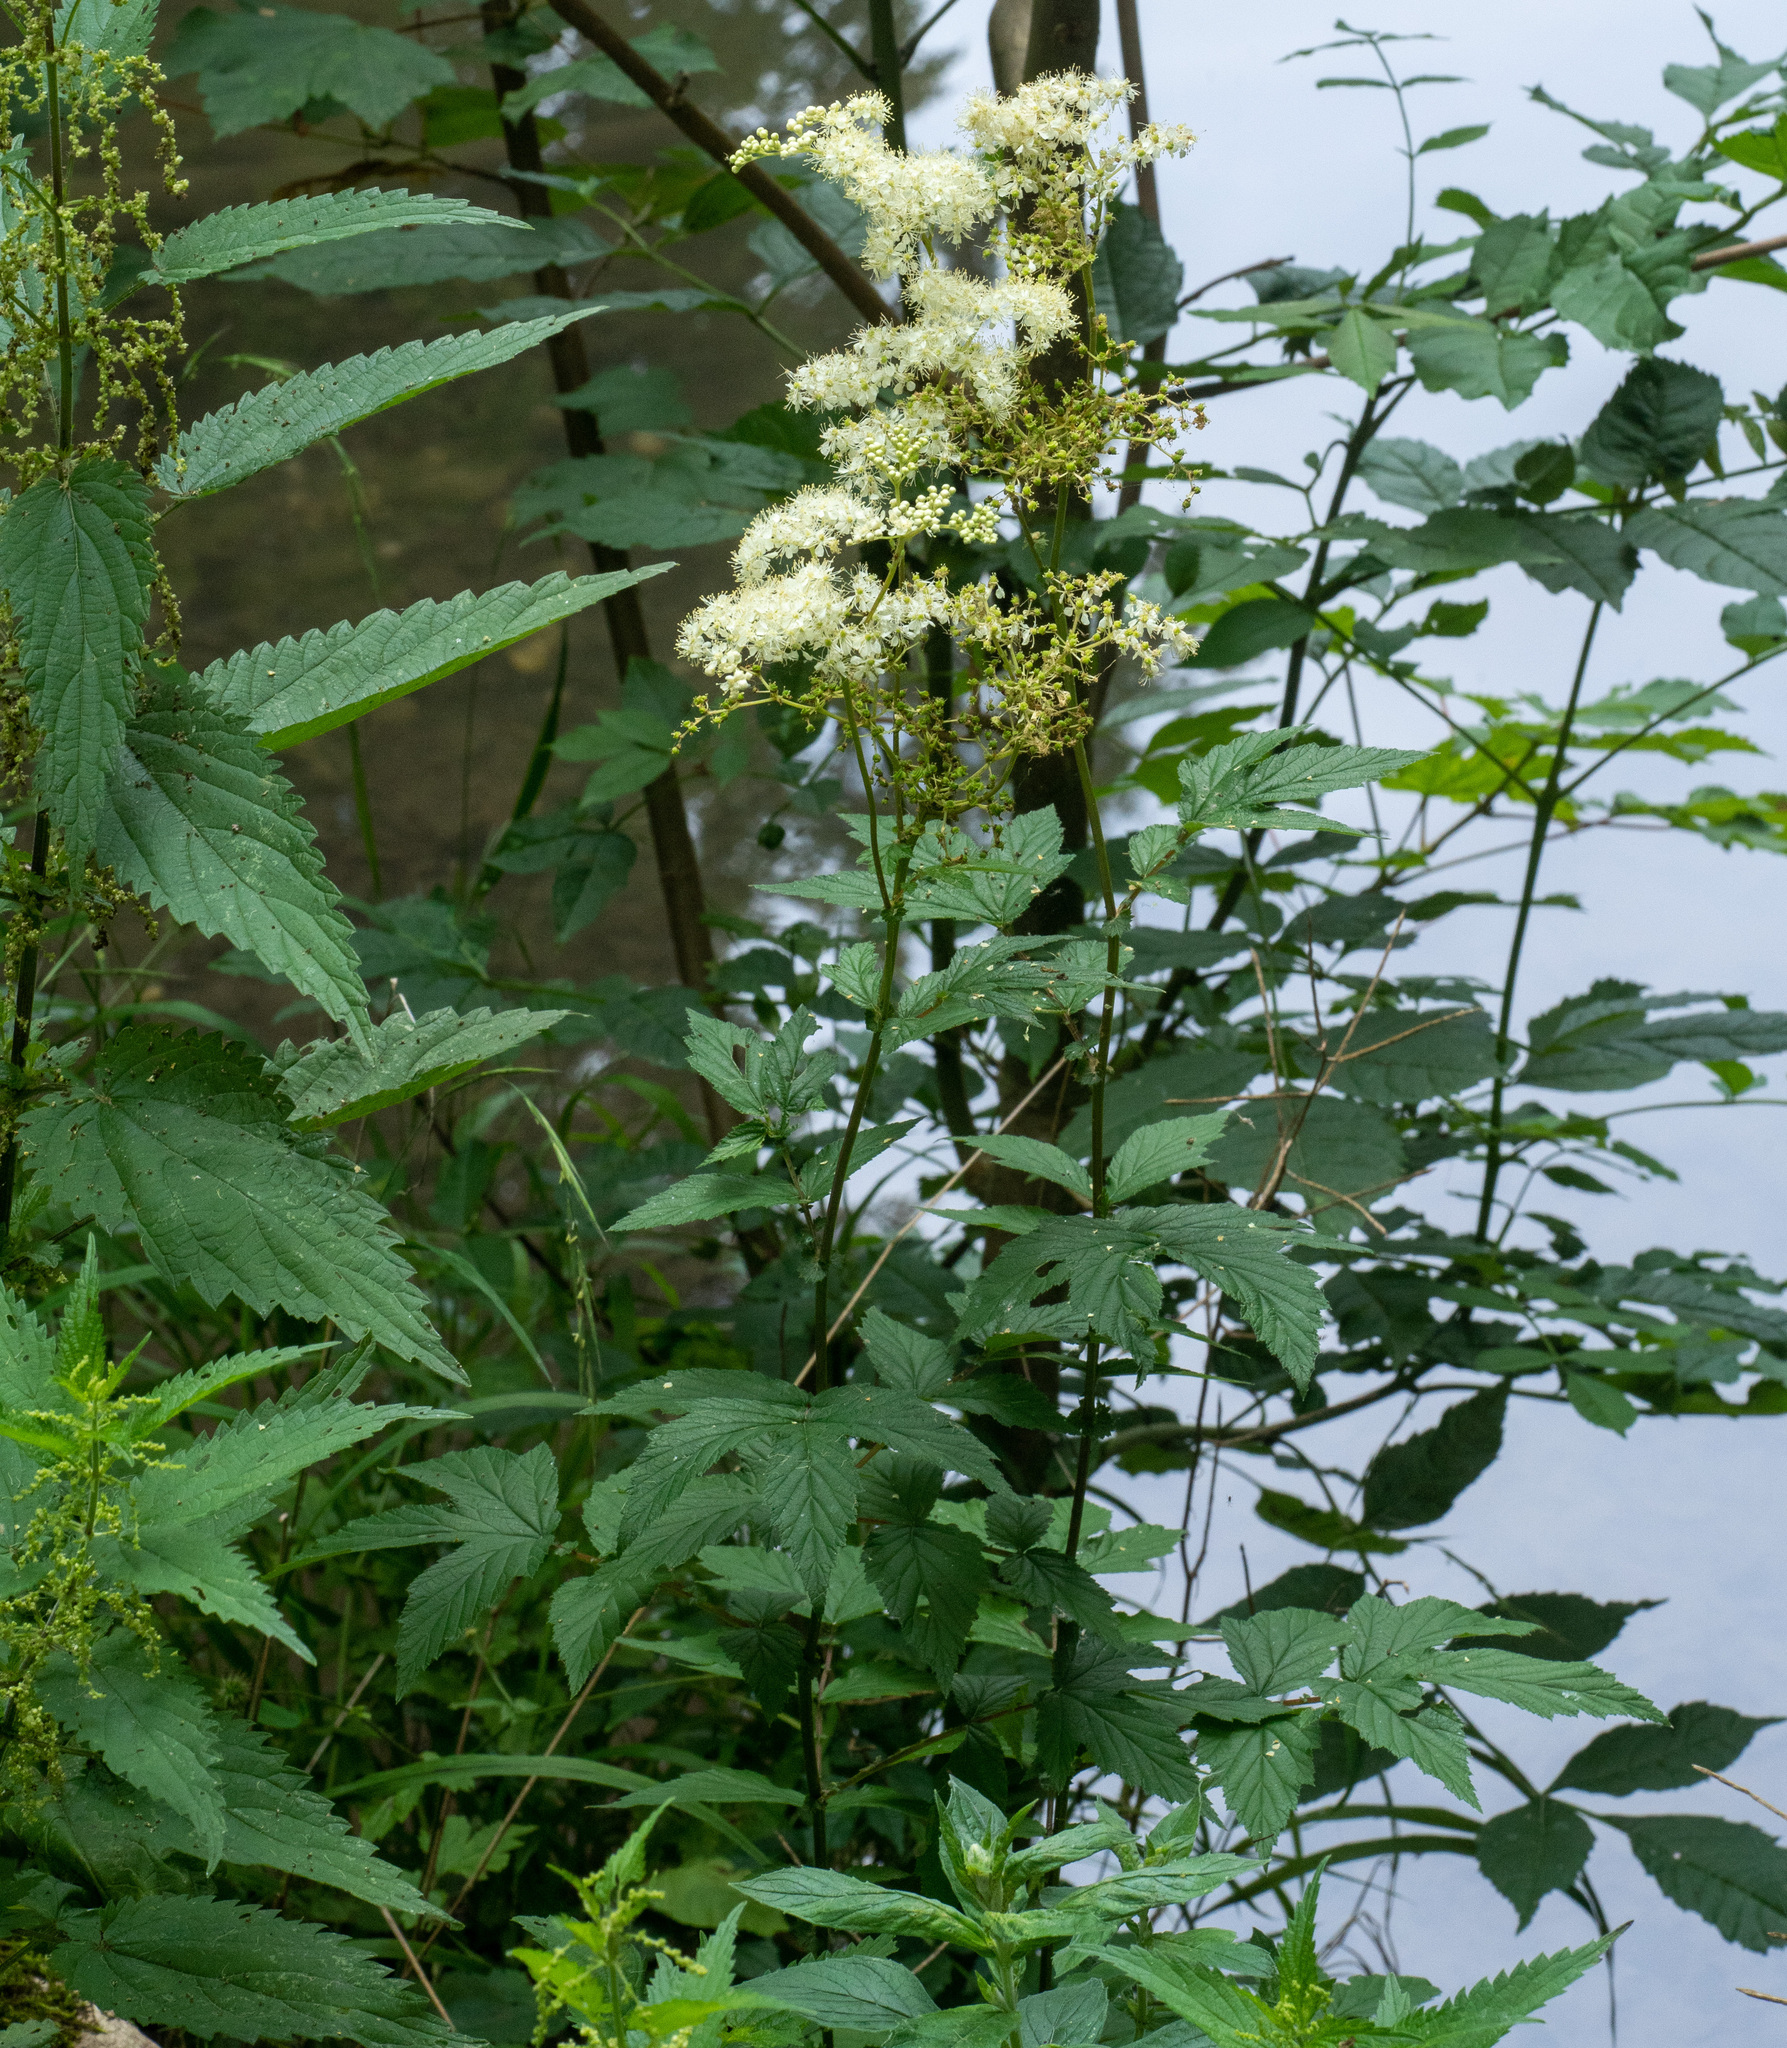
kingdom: Plantae
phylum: Tracheophyta
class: Magnoliopsida
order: Rosales
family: Rosaceae
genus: Filipendula
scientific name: Filipendula ulmaria
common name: Meadowsweet
